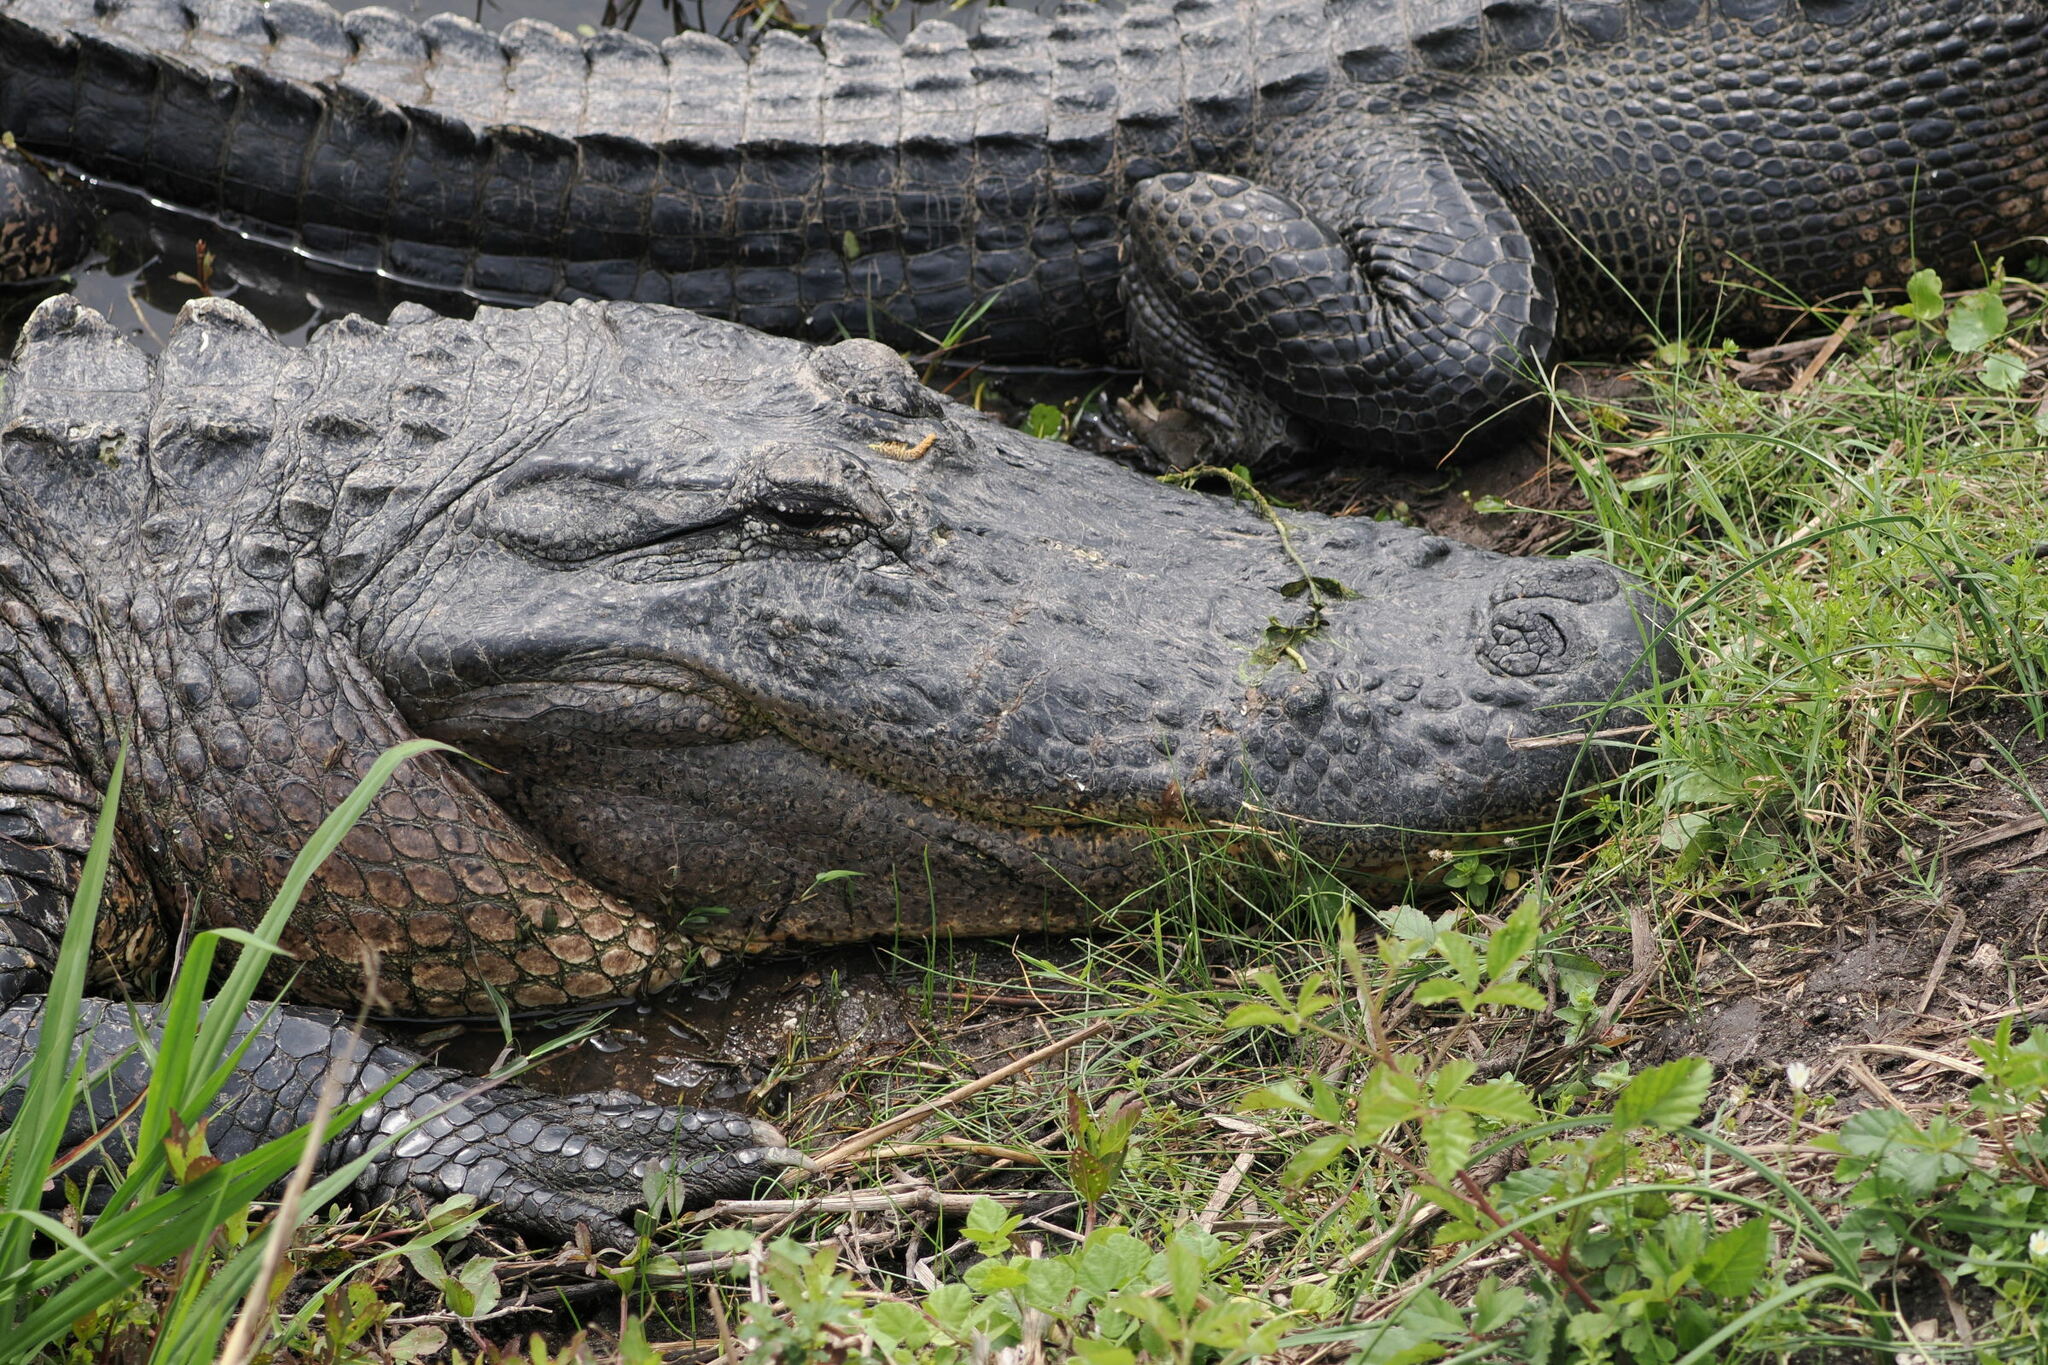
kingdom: Animalia
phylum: Chordata
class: Crocodylia
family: Alligatoridae
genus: Alligator
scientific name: Alligator mississippiensis
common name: American alligator
